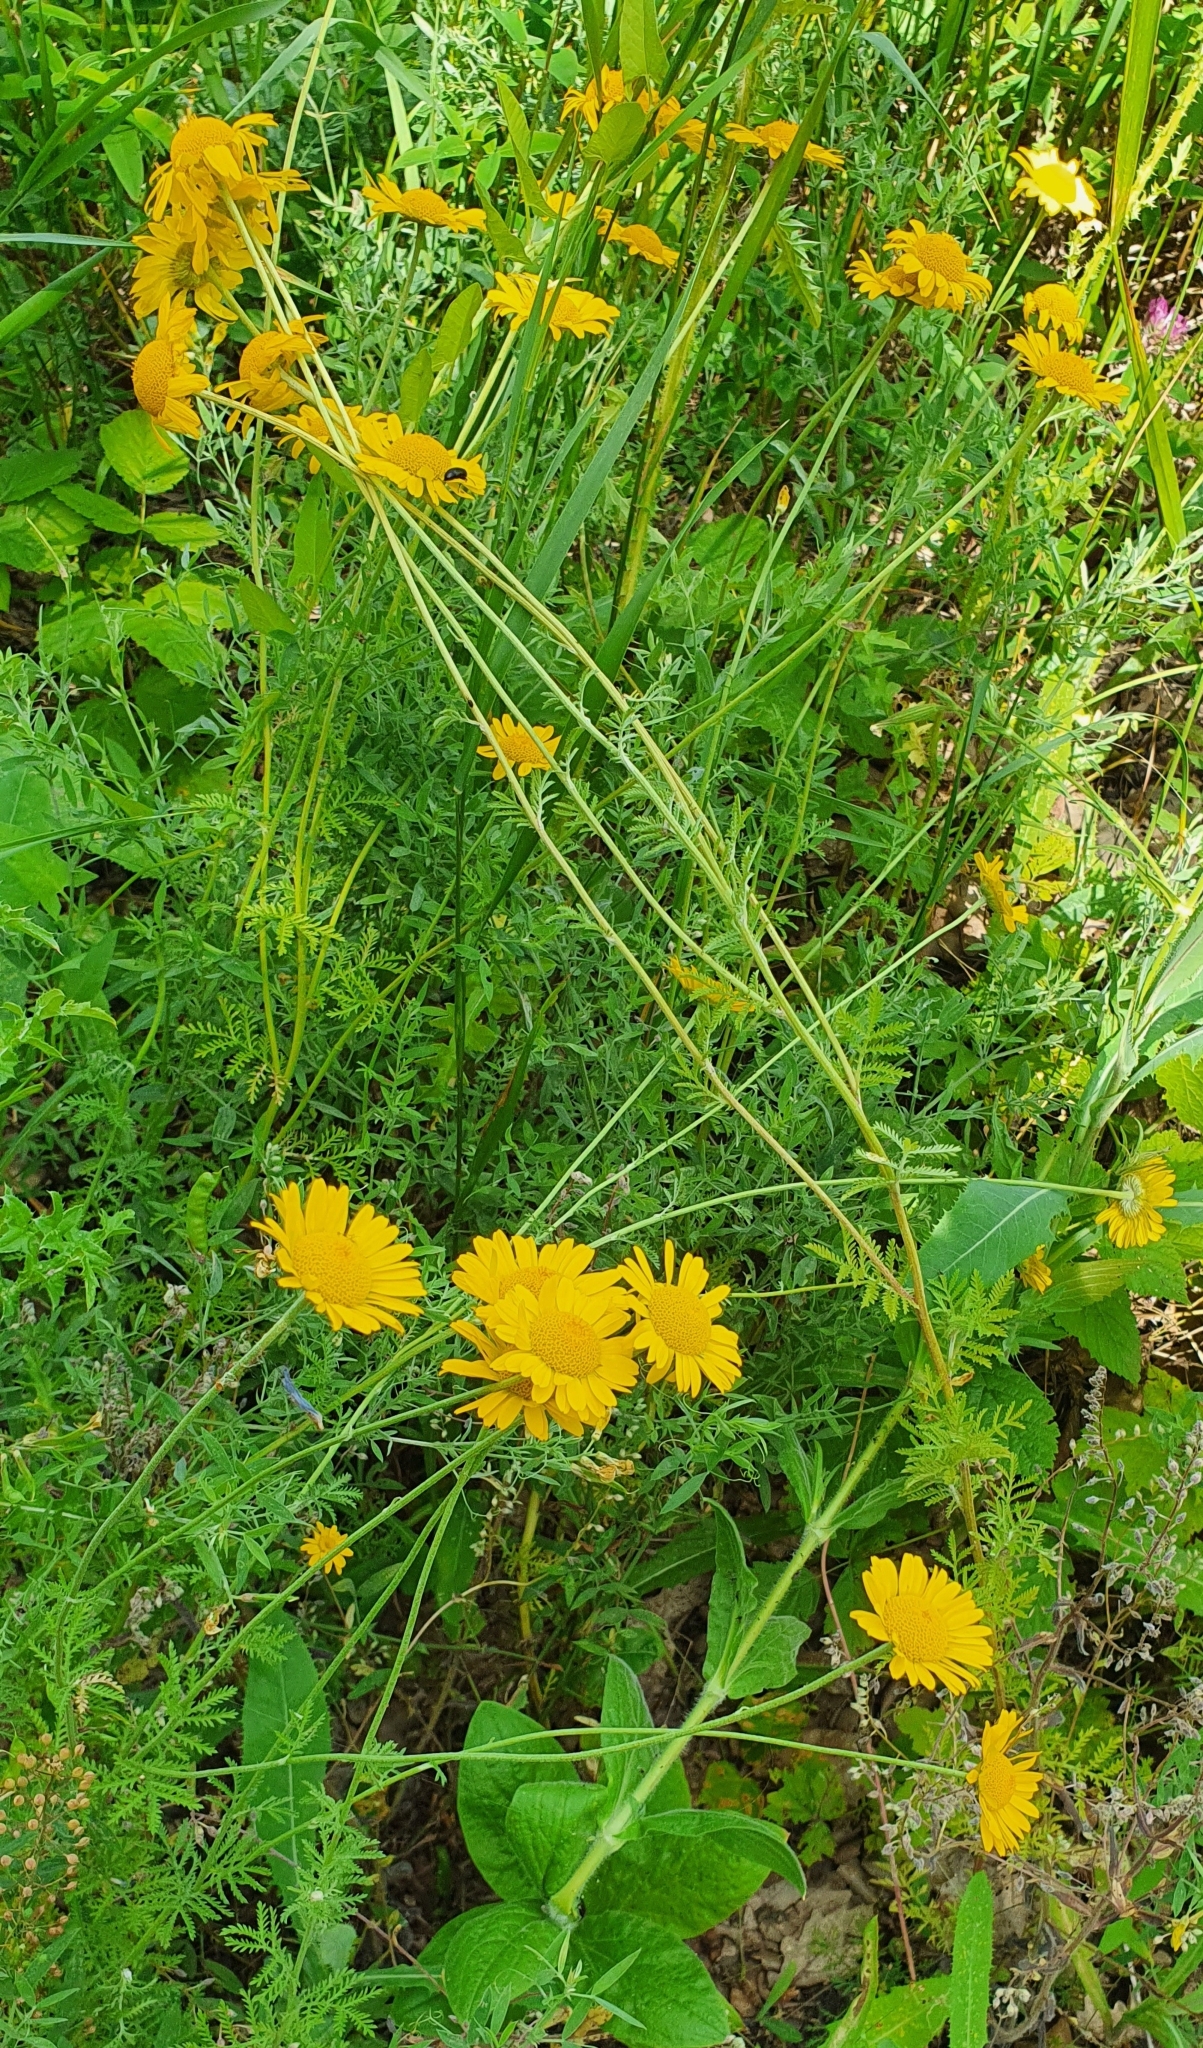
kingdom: Plantae
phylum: Tracheophyta
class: Magnoliopsida
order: Asterales
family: Asteraceae
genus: Cota
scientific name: Cota tinctoria
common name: Golden chamomile
